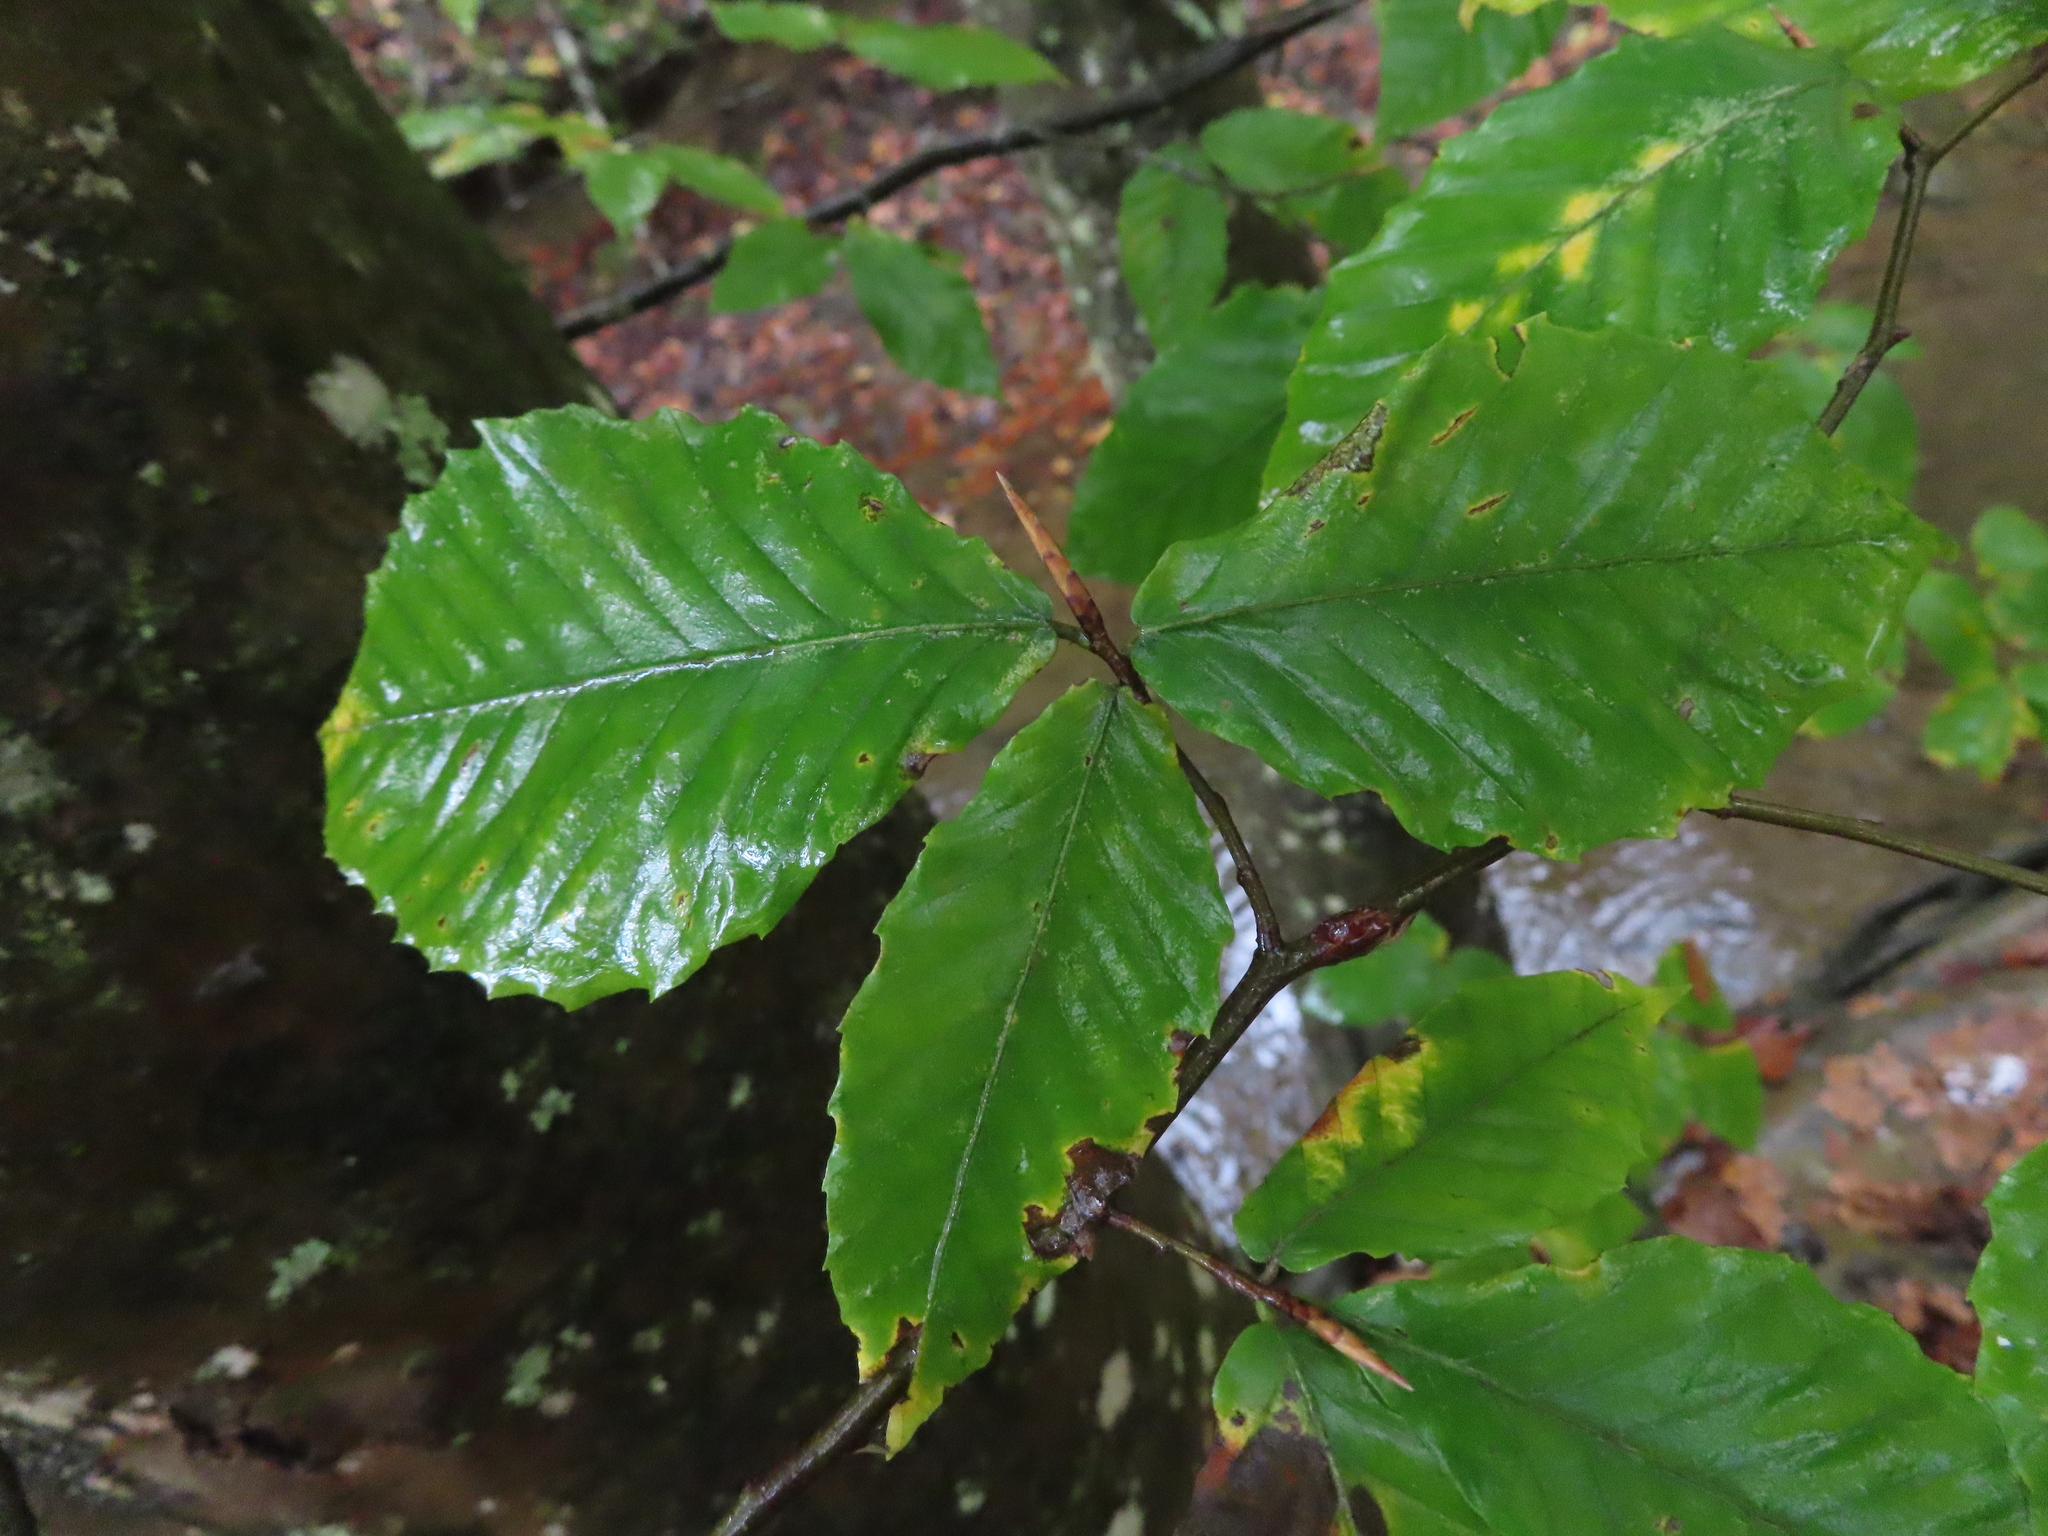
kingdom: Plantae
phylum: Tracheophyta
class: Magnoliopsida
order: Fagales
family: Fagaceae
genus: Fagus
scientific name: Fagus grandifolia
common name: American beech
